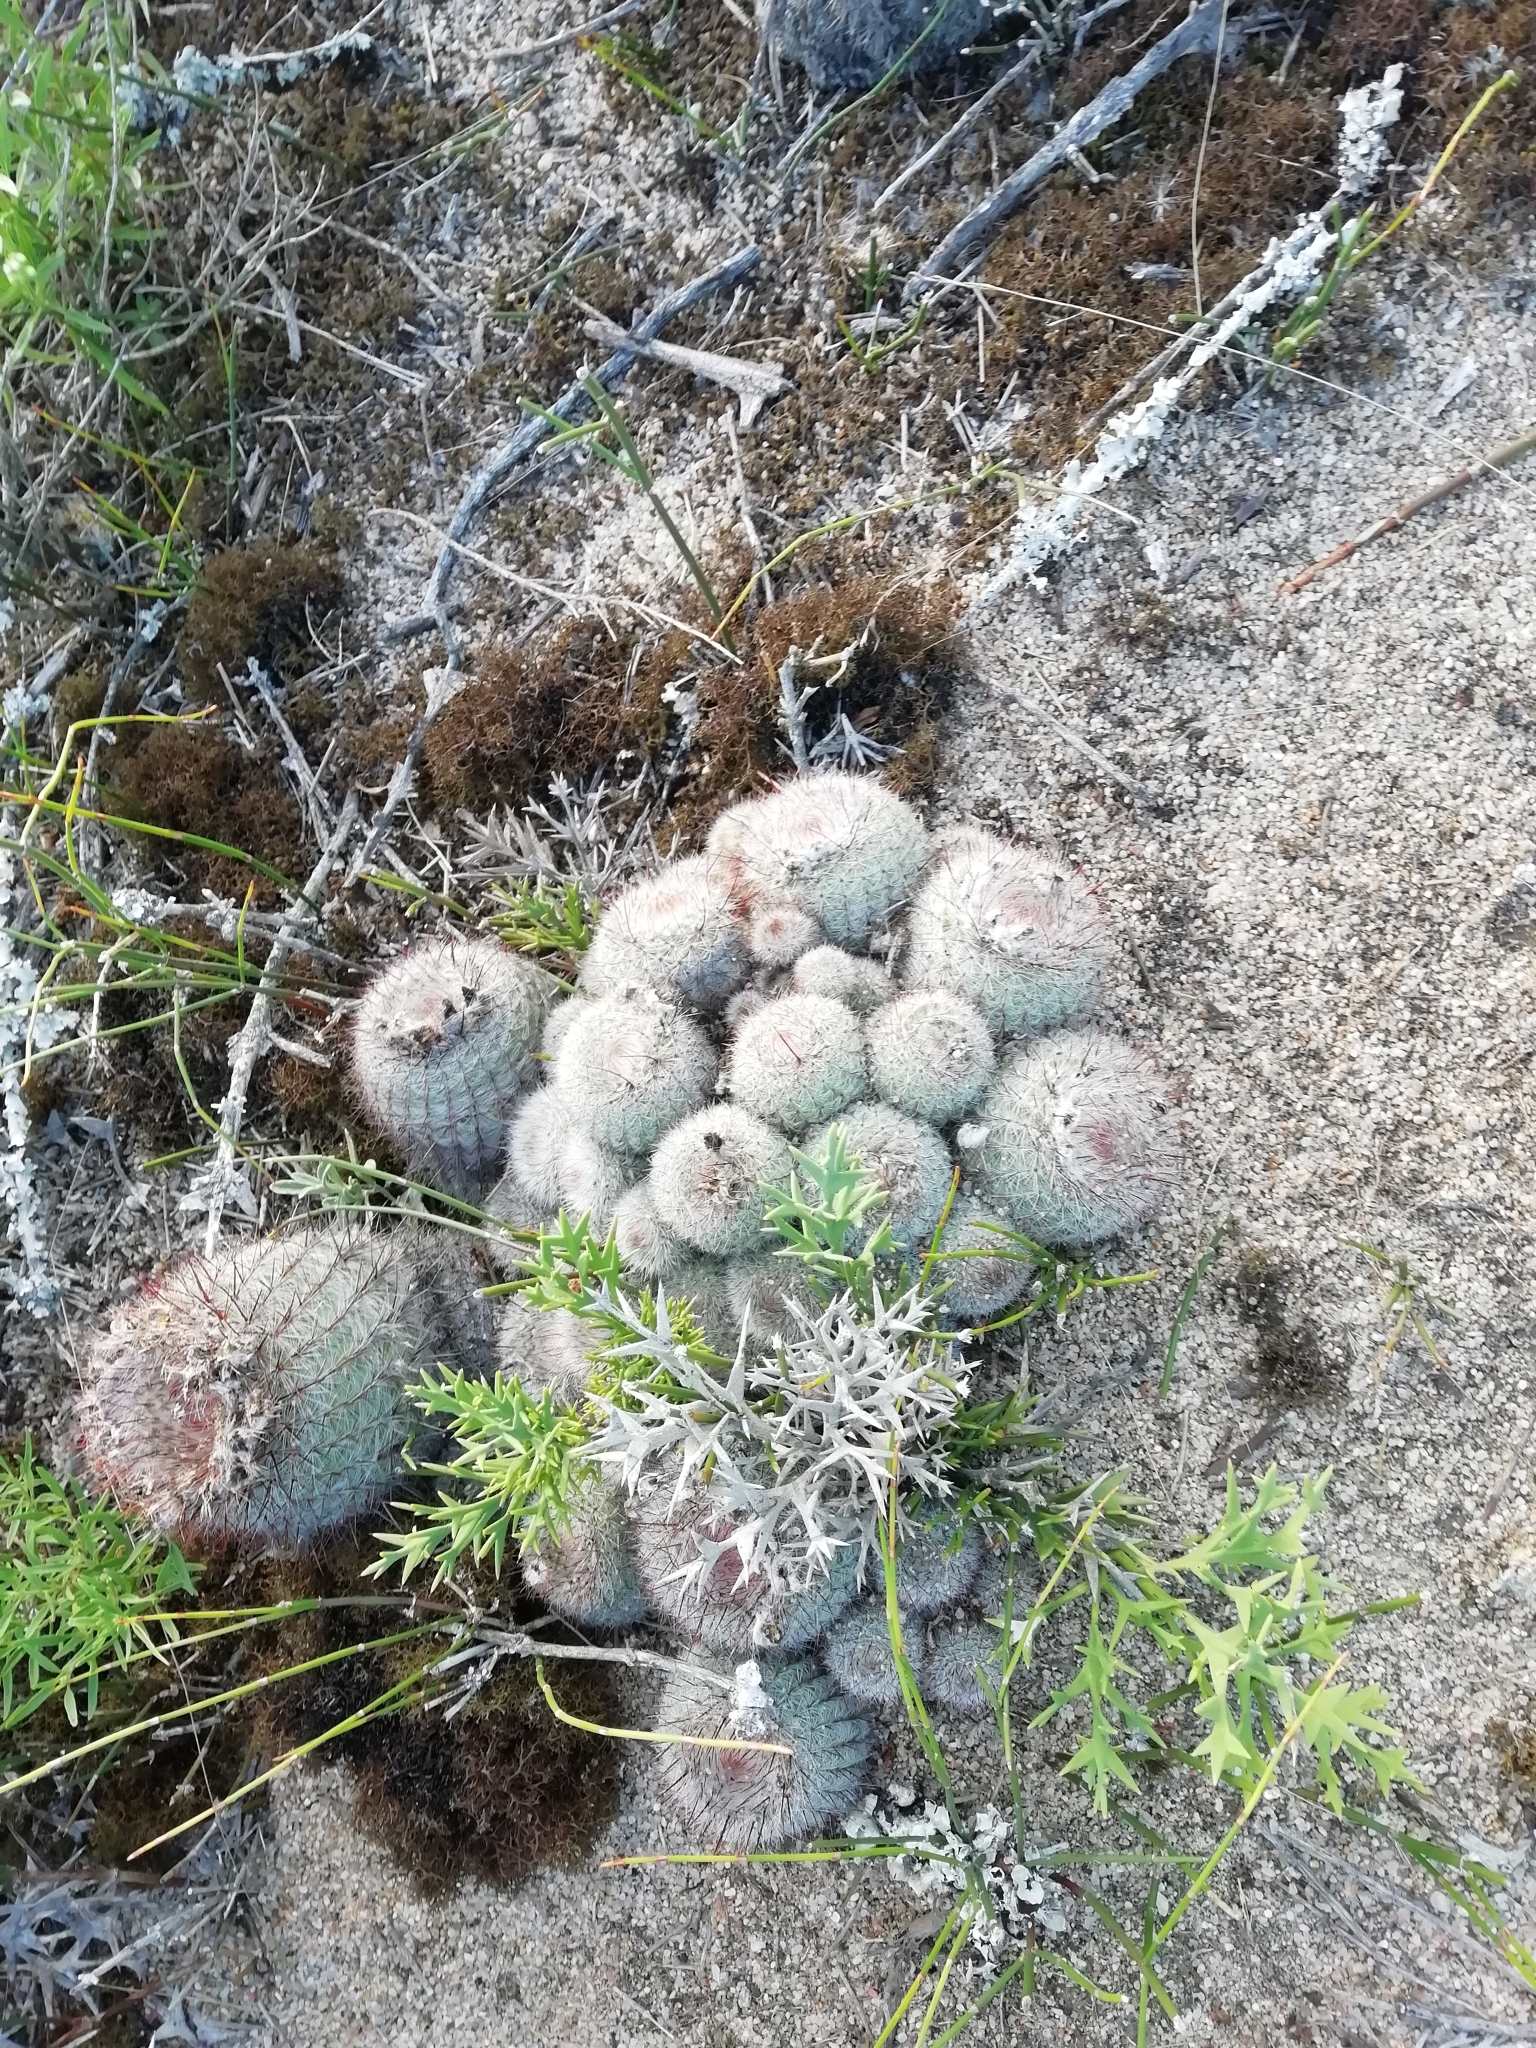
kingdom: Plantae
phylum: Tracheophyta
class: Magnoliopsida
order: Caryophyllales
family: Cactaceae
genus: Parodia
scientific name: Parodia scopa
